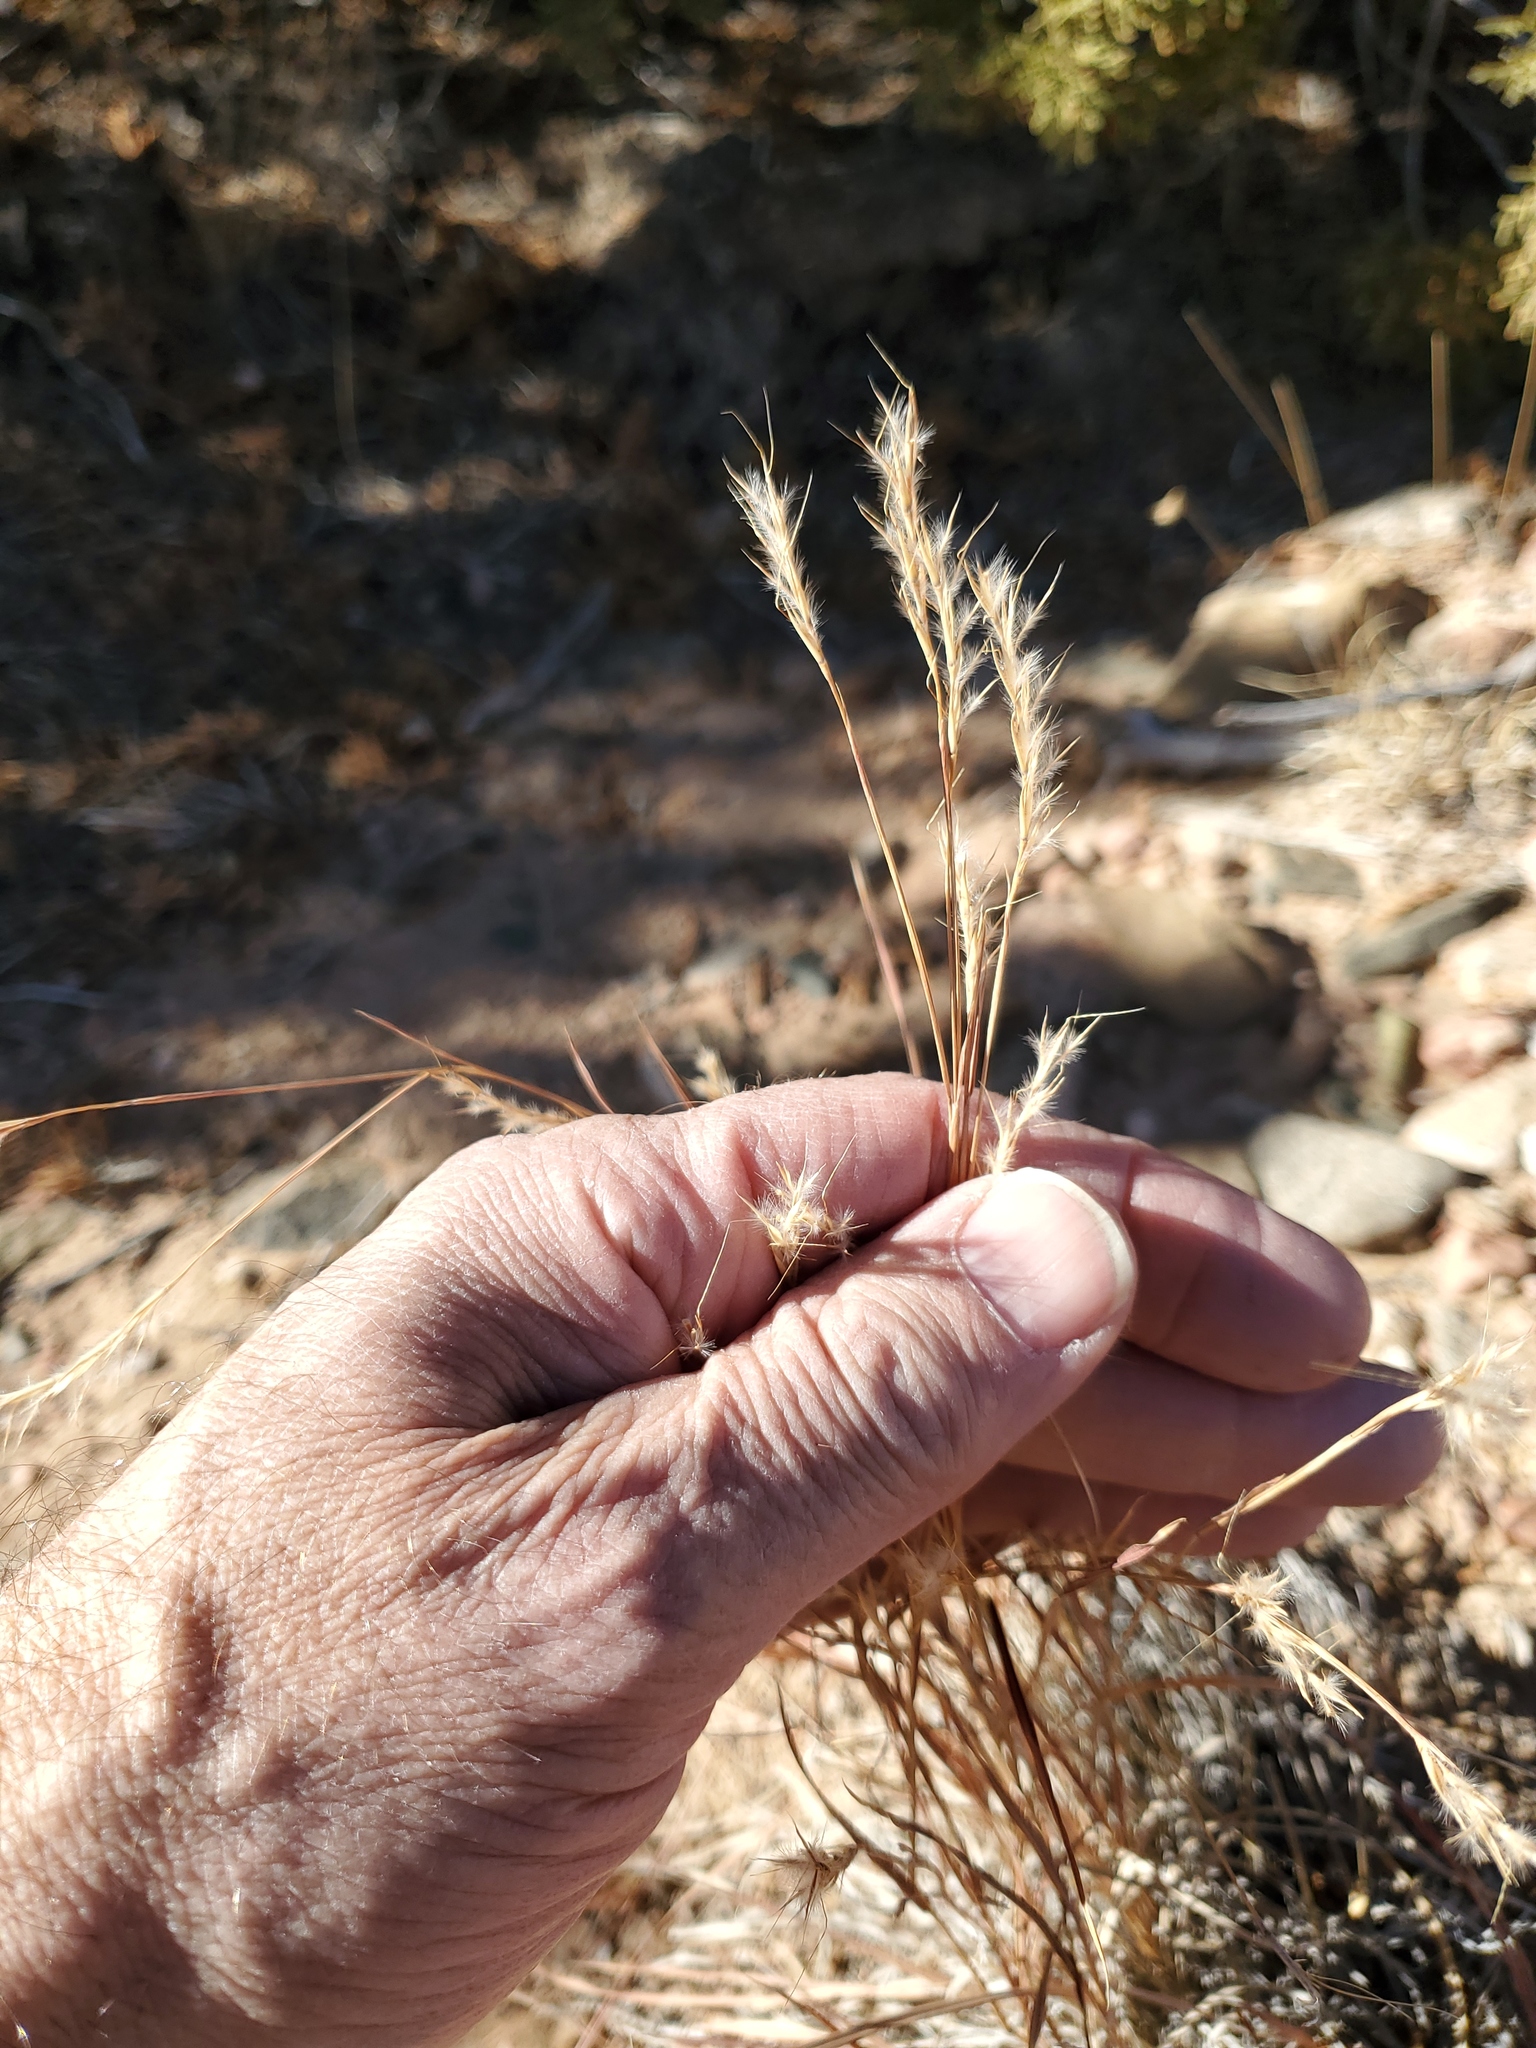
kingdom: Plantae
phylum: Tracheophyta
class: Liliopsida
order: Poales
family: Poaceae
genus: Schizachyrium
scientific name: Schizachyrium scoparium
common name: Little bluestem
